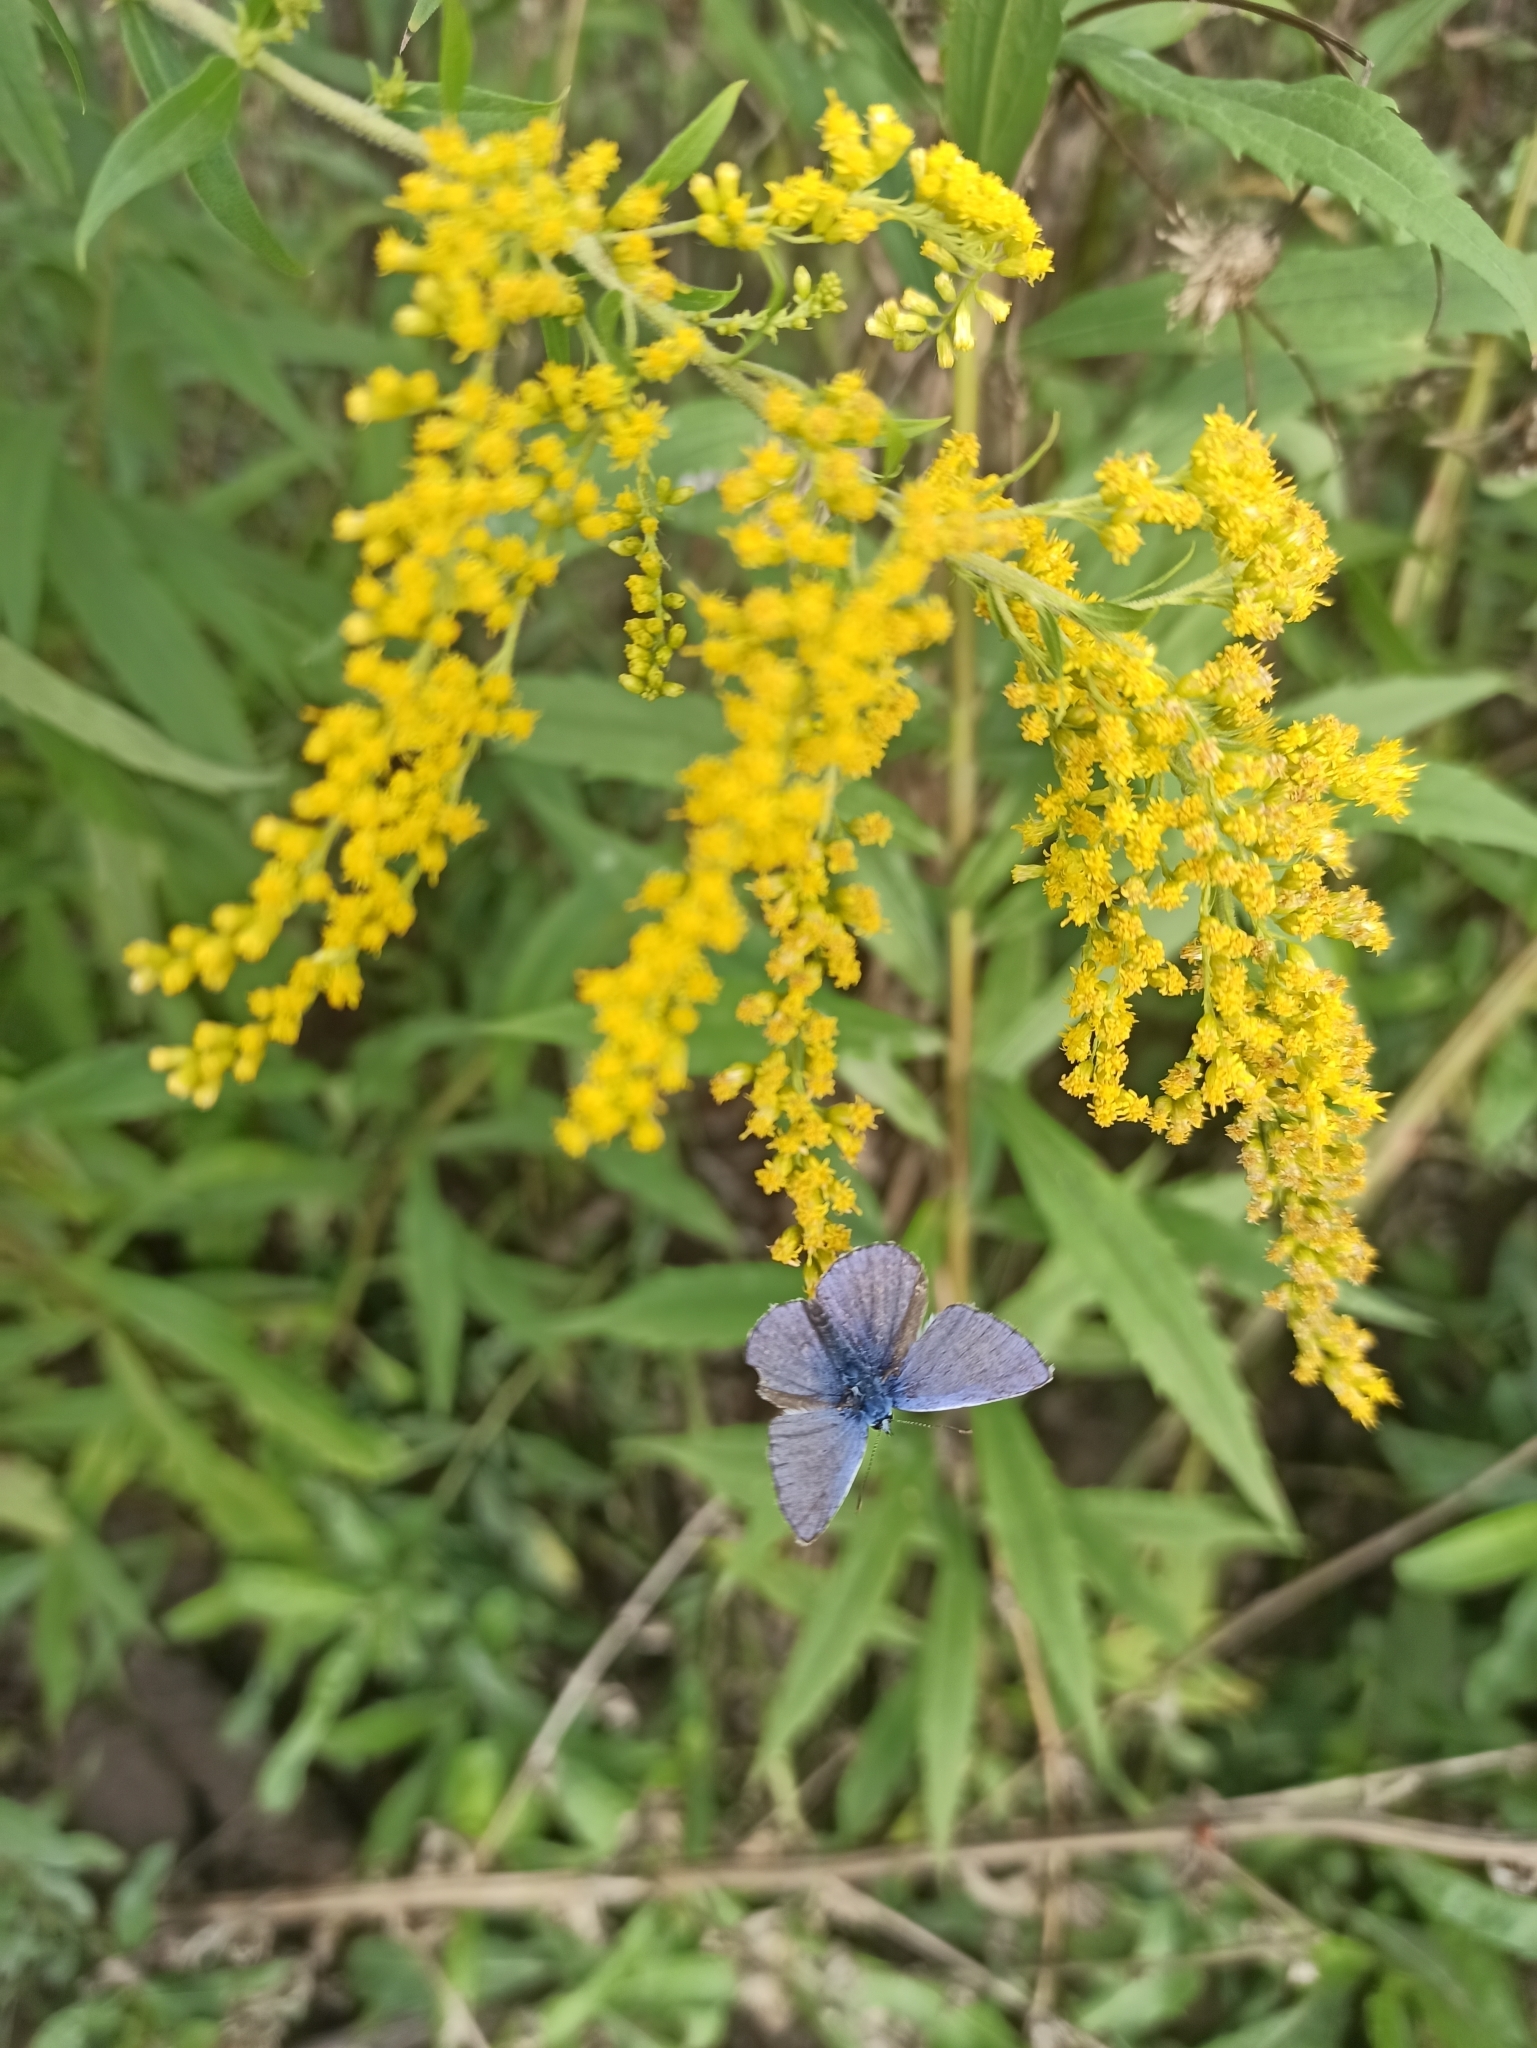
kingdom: Animalia
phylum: Arthropoda
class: Insecta
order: Lepidoptera
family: Lycaenidae
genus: Polyommatus
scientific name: Polyommatus icarus
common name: Common blue
